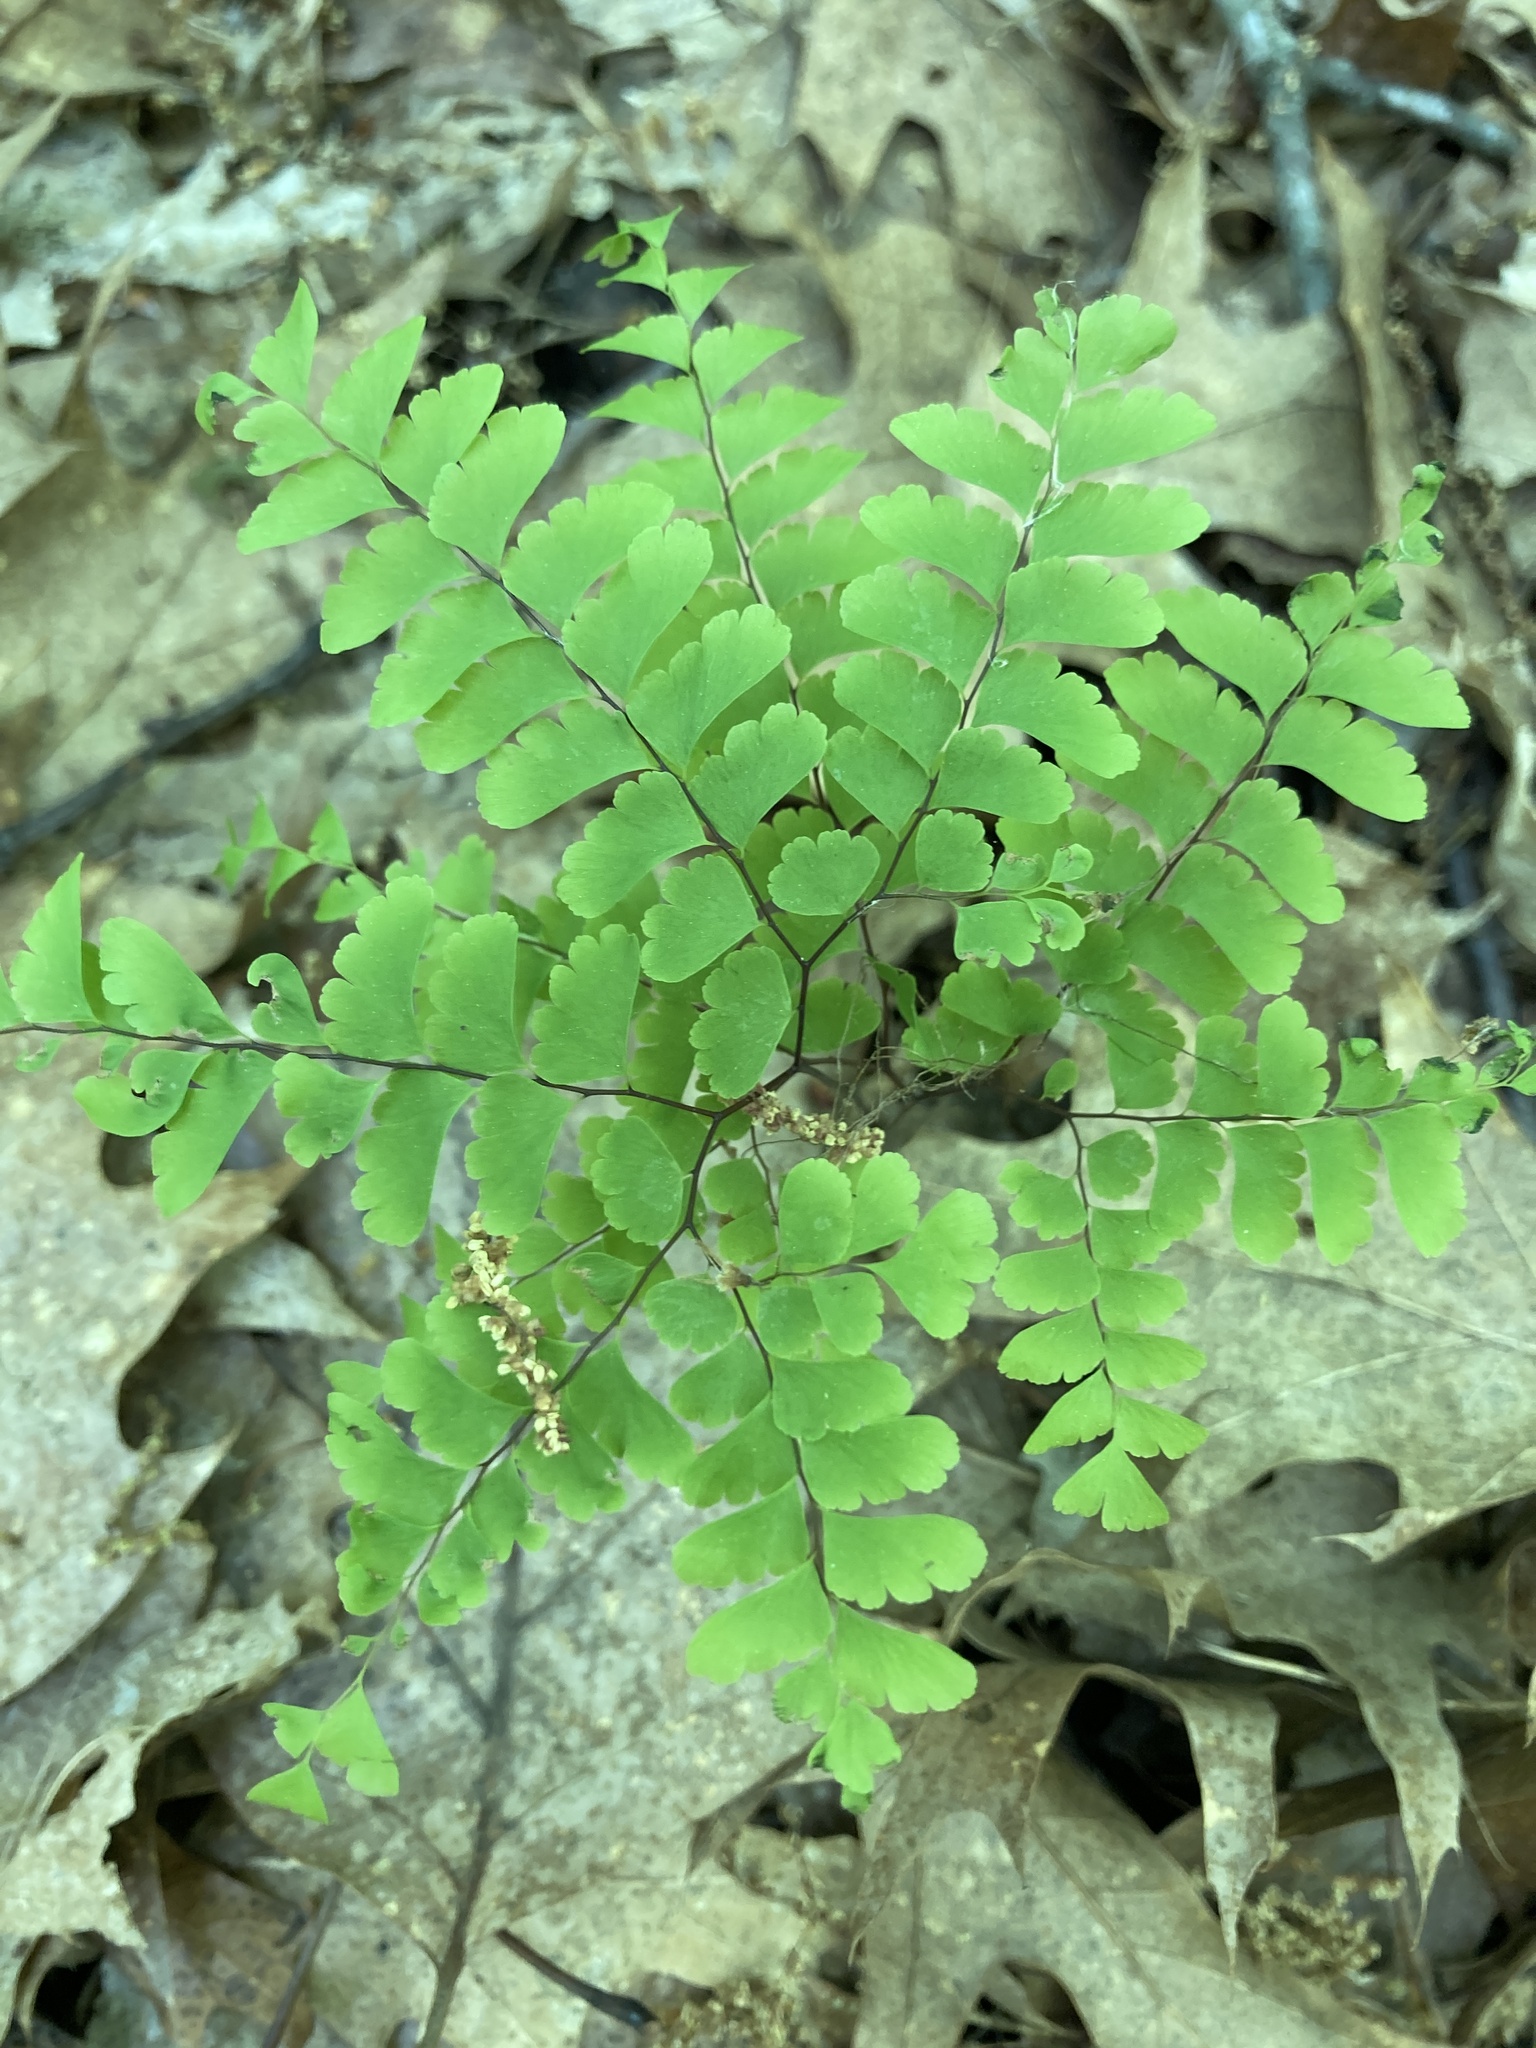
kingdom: Plantae
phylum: Tracheophyta
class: Polypodiopsida
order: Polypodiales
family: Pteridaceae
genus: Adiantum
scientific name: Adiantum pedatum
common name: Five-finger fern
